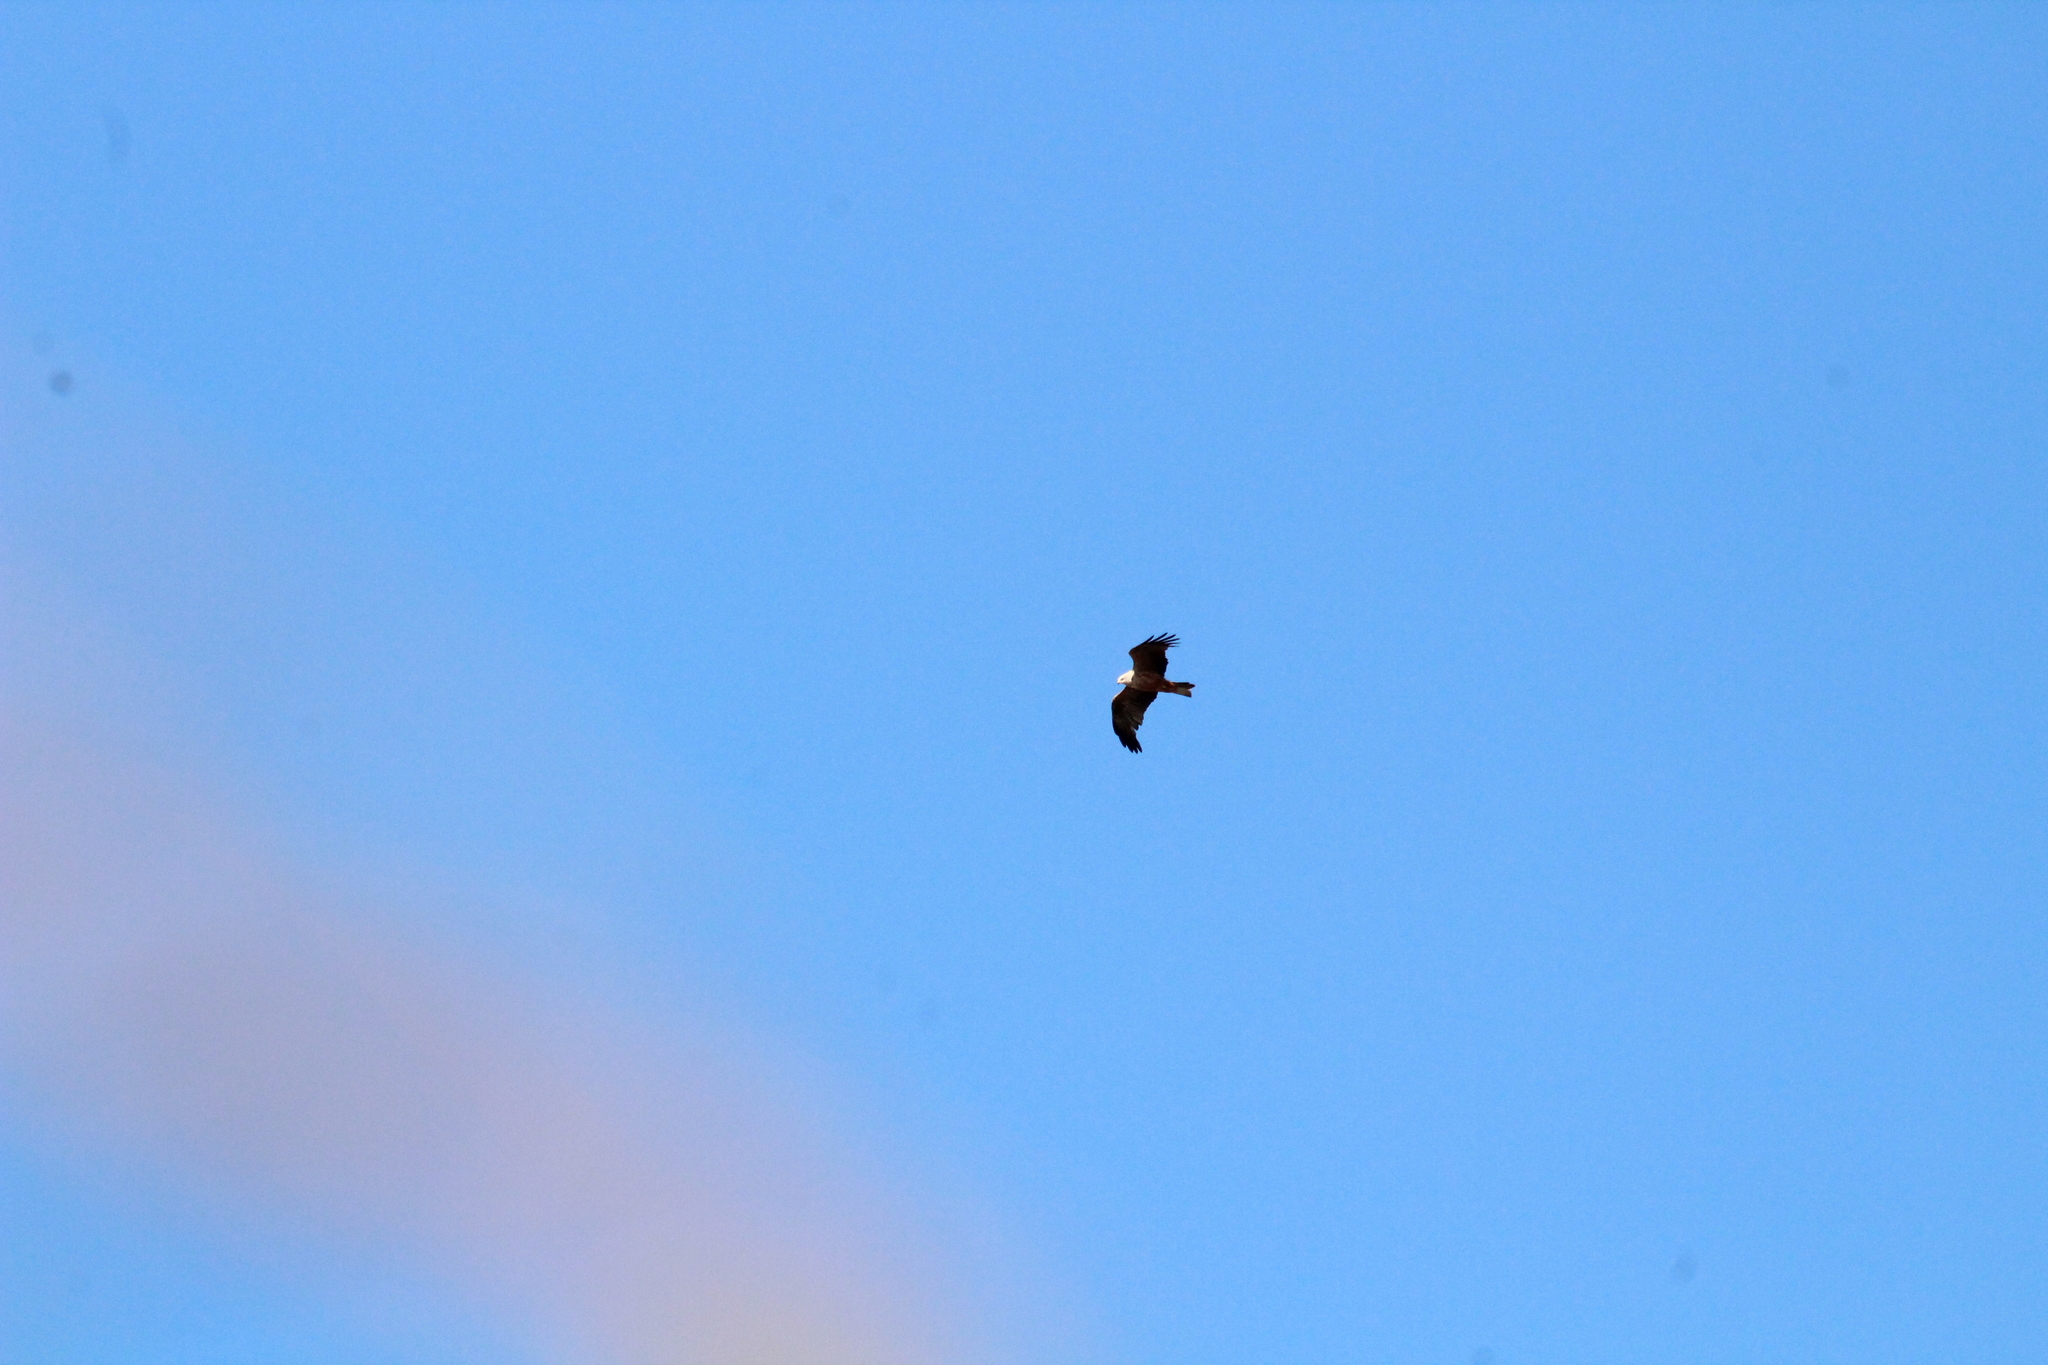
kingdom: Animalia
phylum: Chordata
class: Aves
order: Accipitriformes
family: Accipitridae
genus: Milvus
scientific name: Milvus migrans
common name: Black kite
